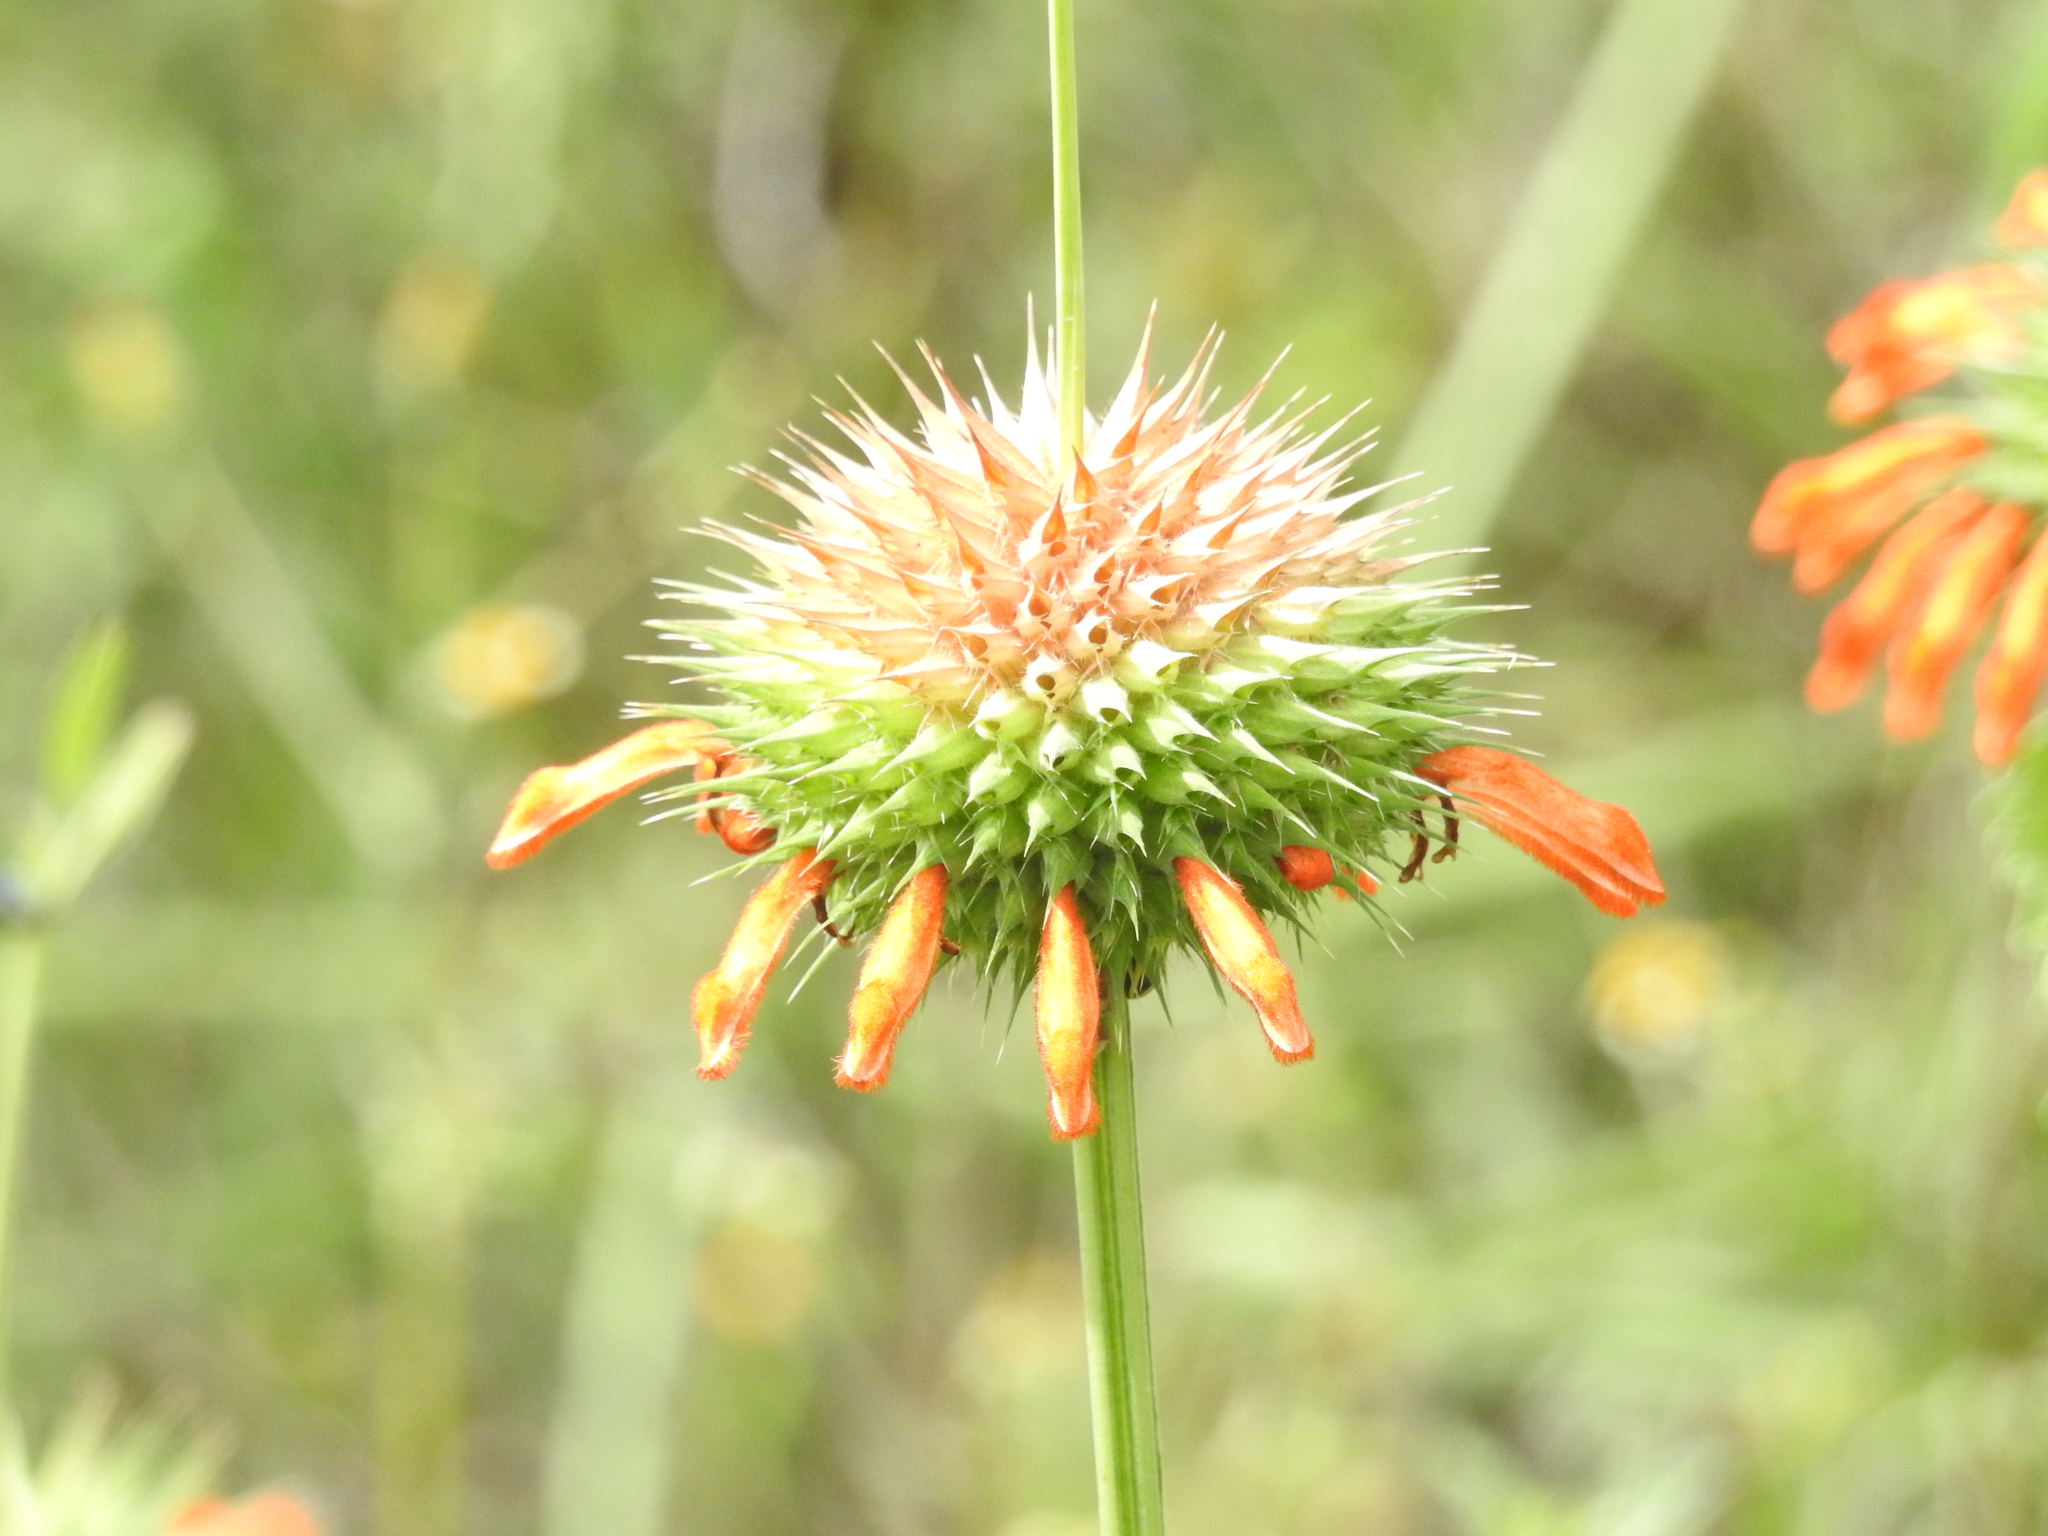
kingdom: Plantae
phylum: Tracheophyta
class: Magnoliopsida
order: Lamiales
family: Lamiaceae
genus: Leonotis
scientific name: Leonotis nepetifolia
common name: Christmas candlestick
